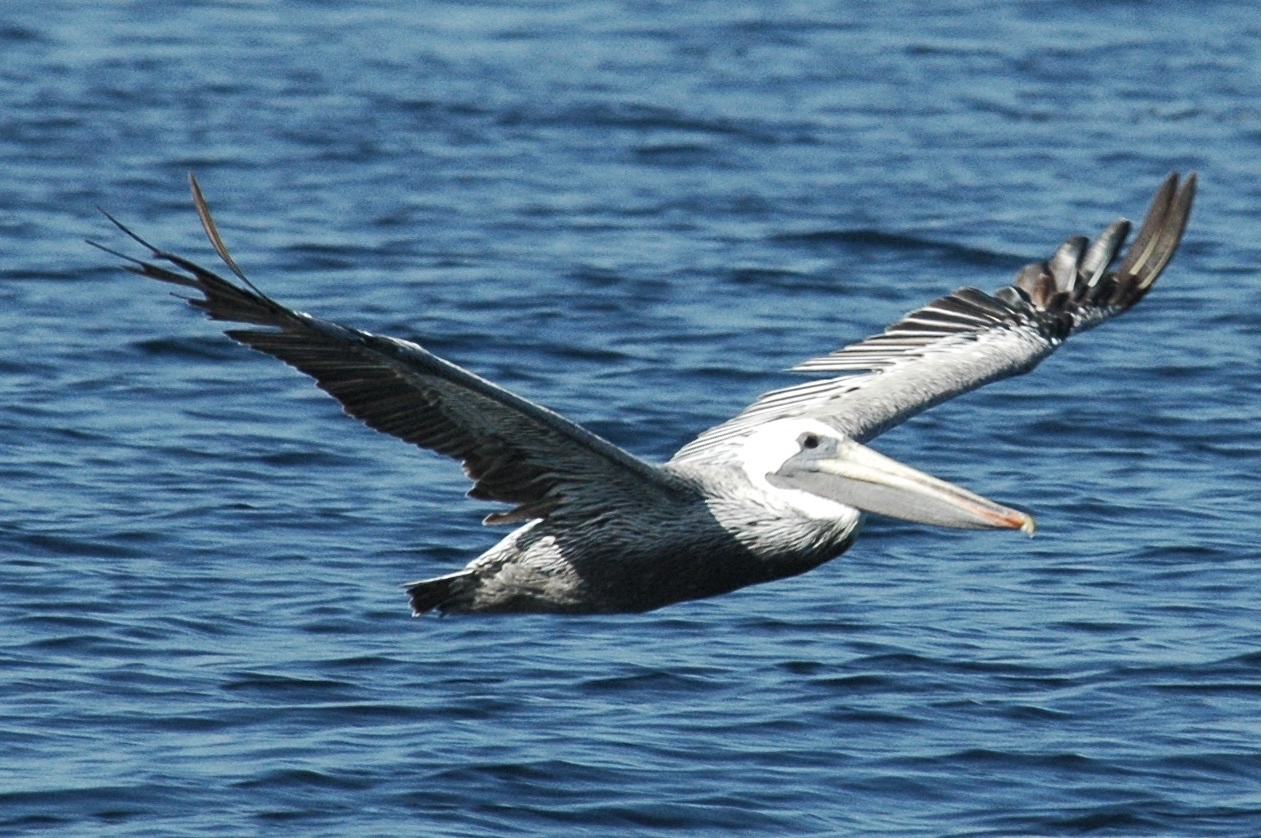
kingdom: Animalia
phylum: Chordata
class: Aves
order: Pelecaniformes
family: Pelecanidae
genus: Pelecanus
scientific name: Pelecanus occidentalis
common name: Brown pelican
